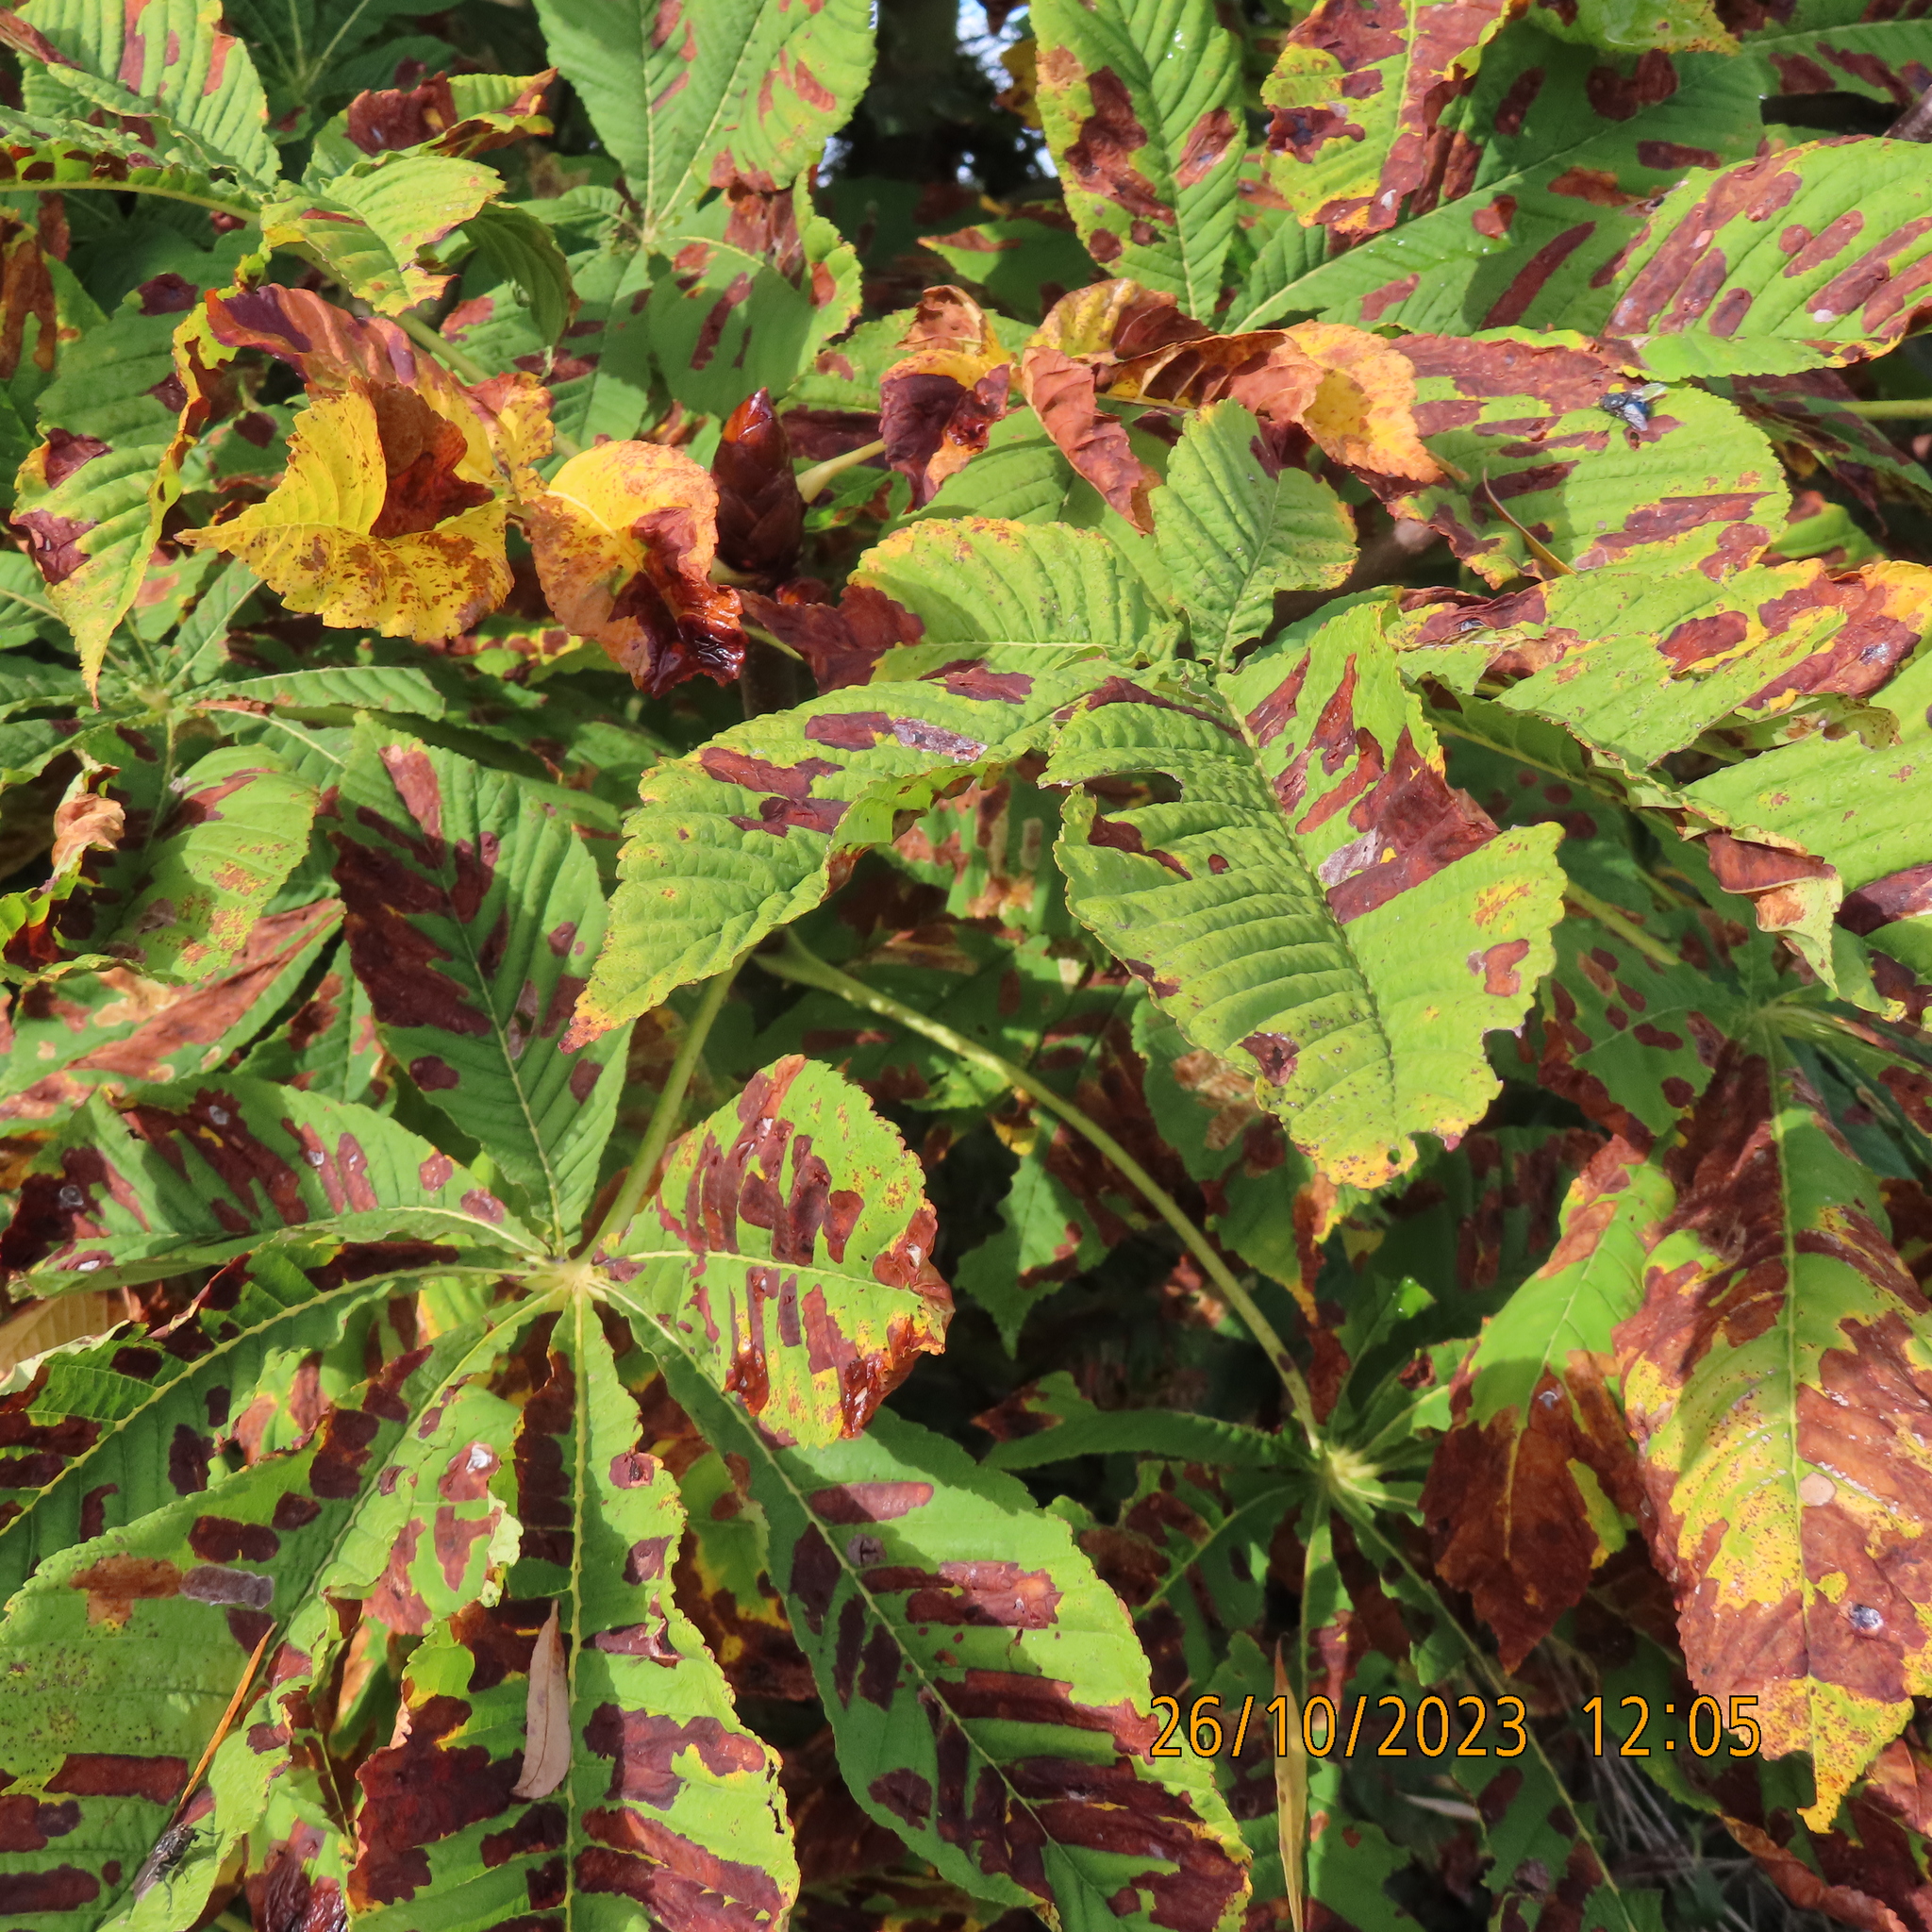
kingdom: Plantae
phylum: Tracheophyta
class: Magnoliopsida
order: Sapindales
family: Sapindaceae
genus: Aesculus
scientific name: Aesculus hippocastanum
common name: Horse-chestnut
